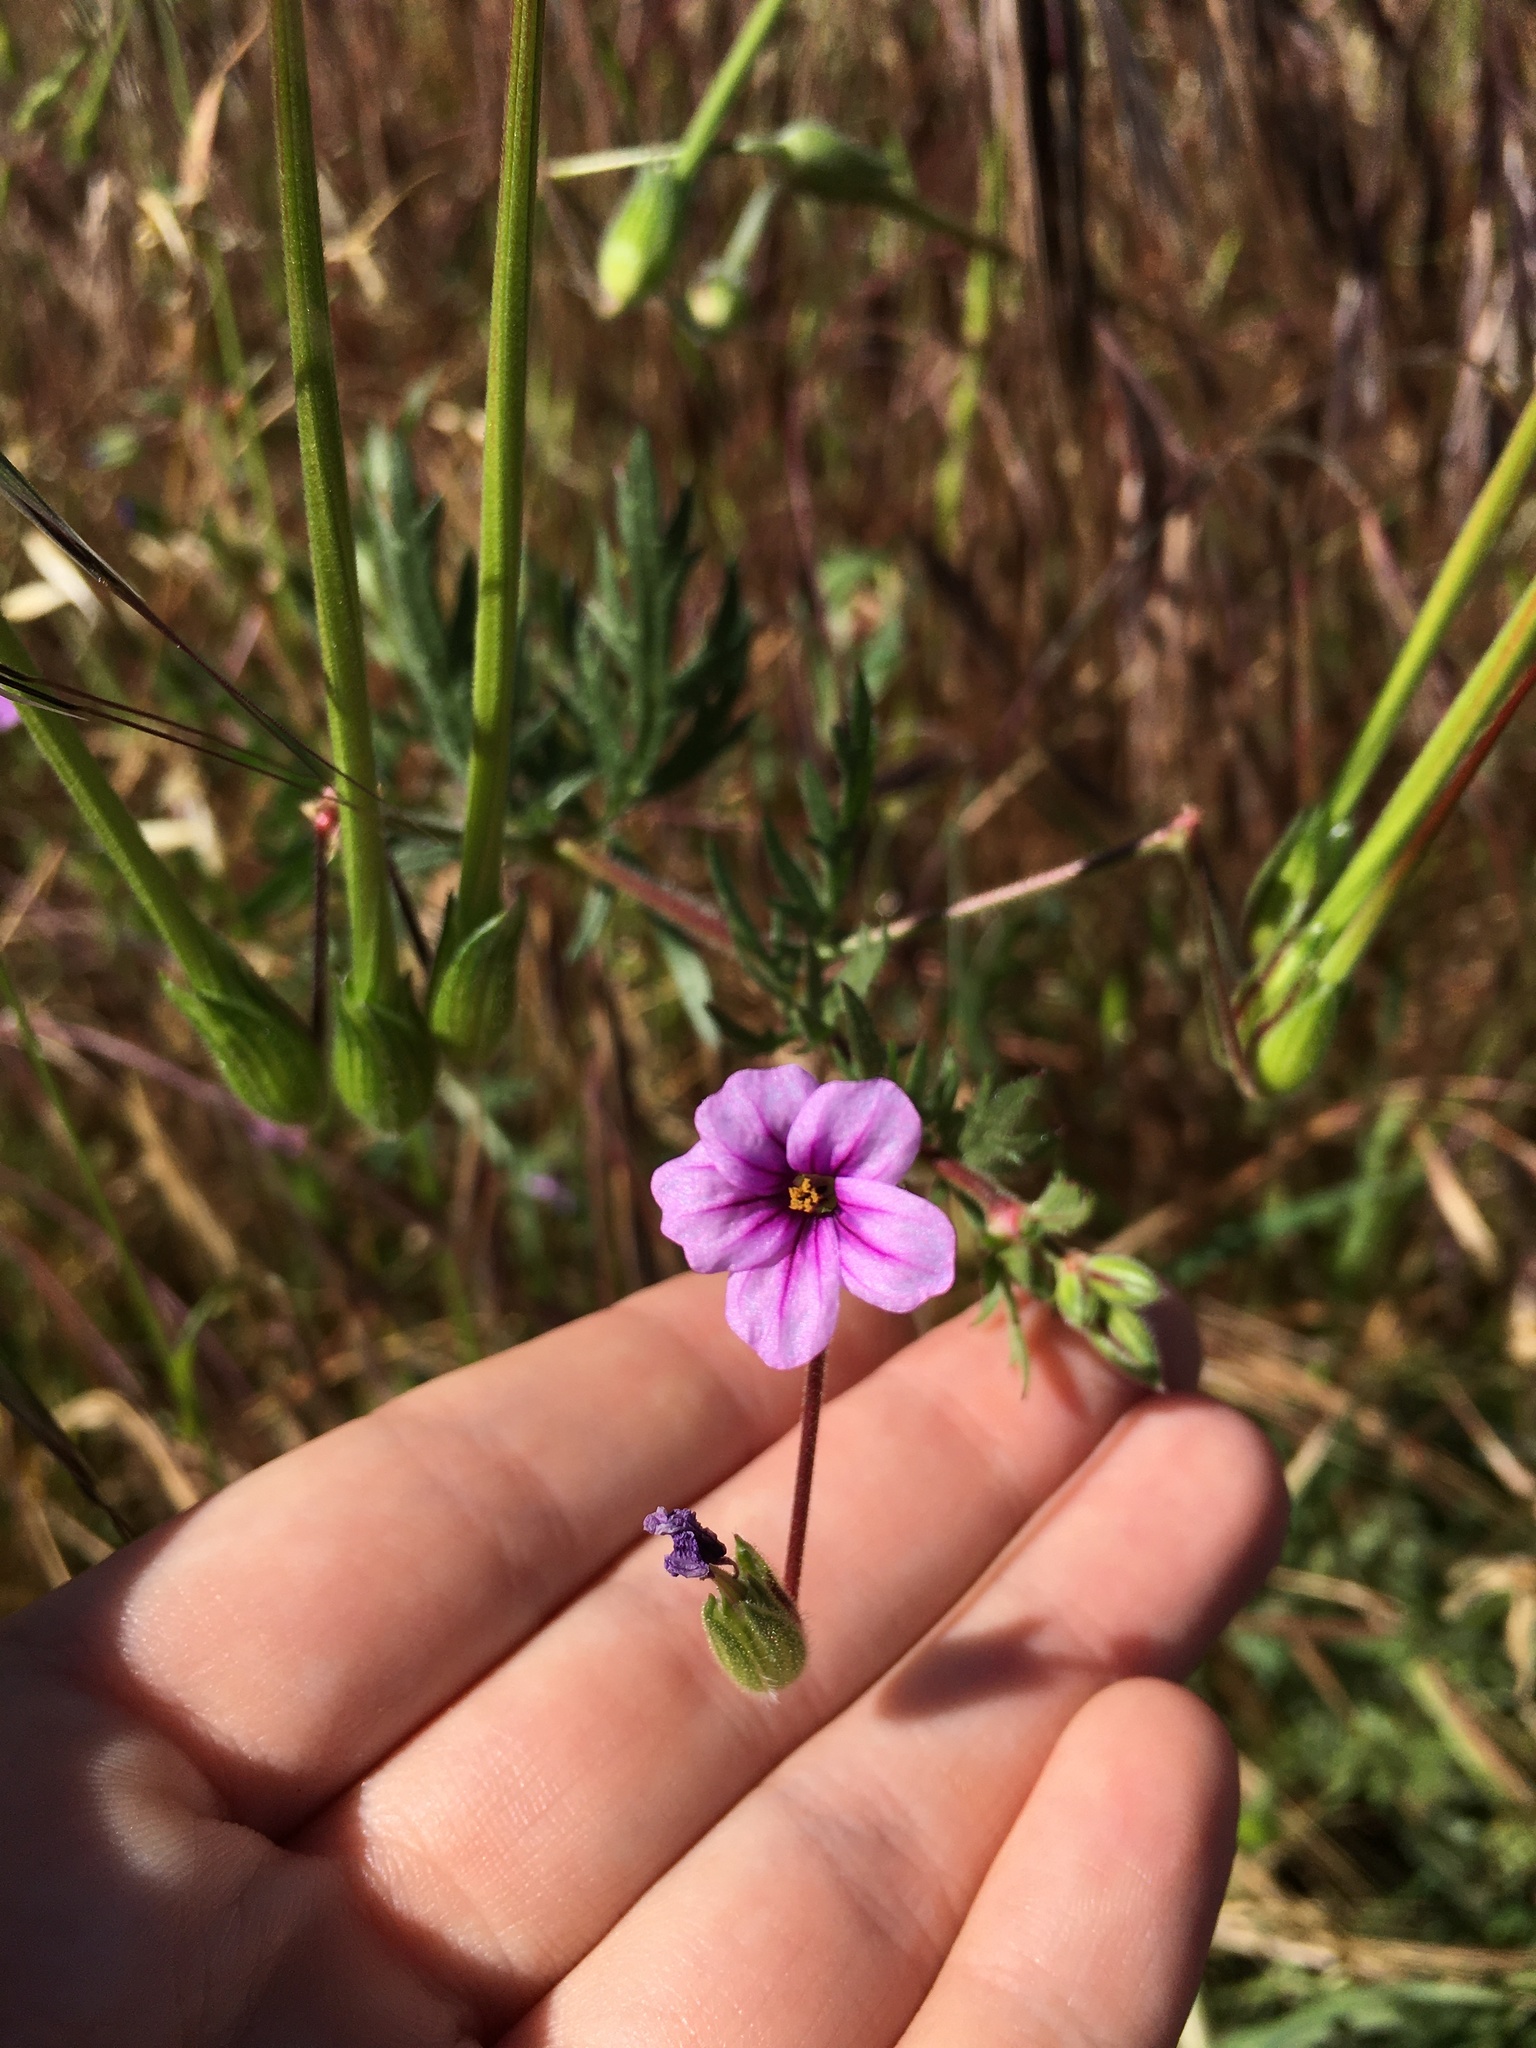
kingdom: Plantae
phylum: Tracheophyta
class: Magnoliopsida
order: Geraniales
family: Geraniaceae
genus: Erodium
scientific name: Erodium botrys
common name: Mediterranean stork's-bill
